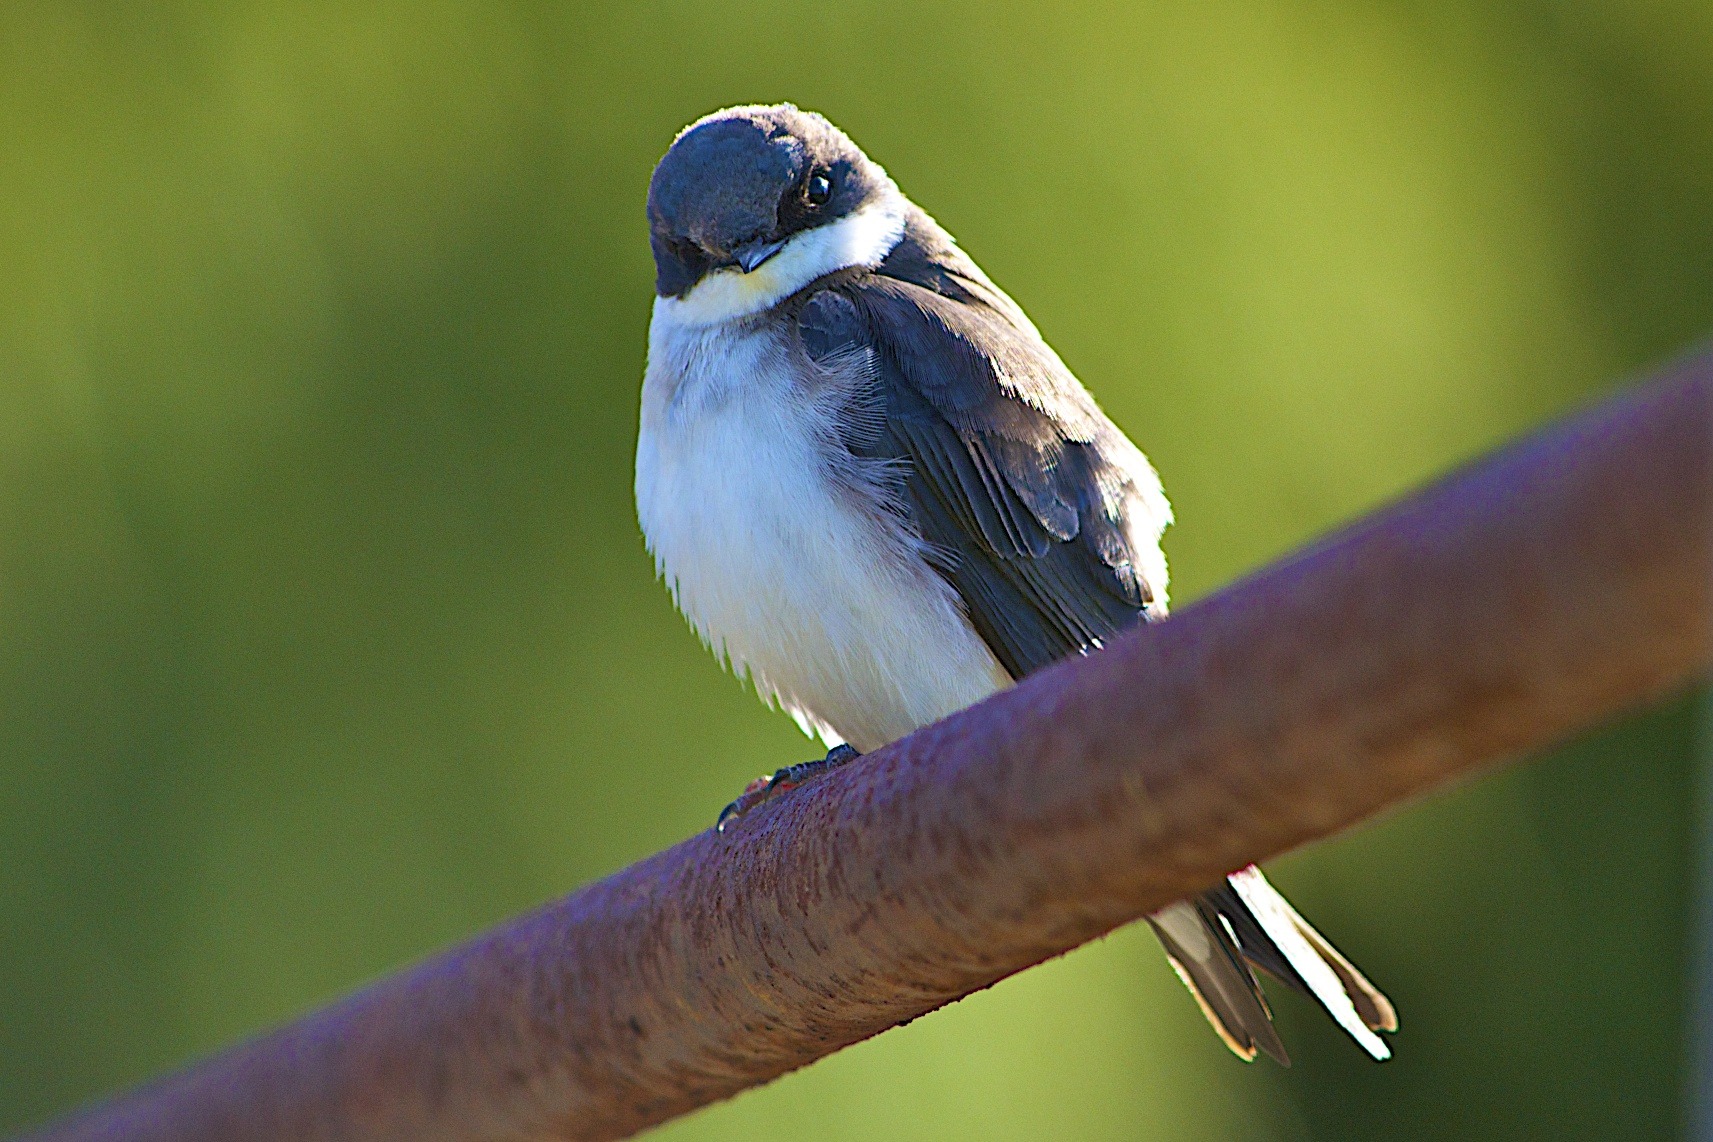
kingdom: Animalia
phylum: Chordata
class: Aves
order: Passeriformes
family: Hirundinidae
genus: Tachycineta
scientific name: Tachycineta bicolor
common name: Tree swallow
